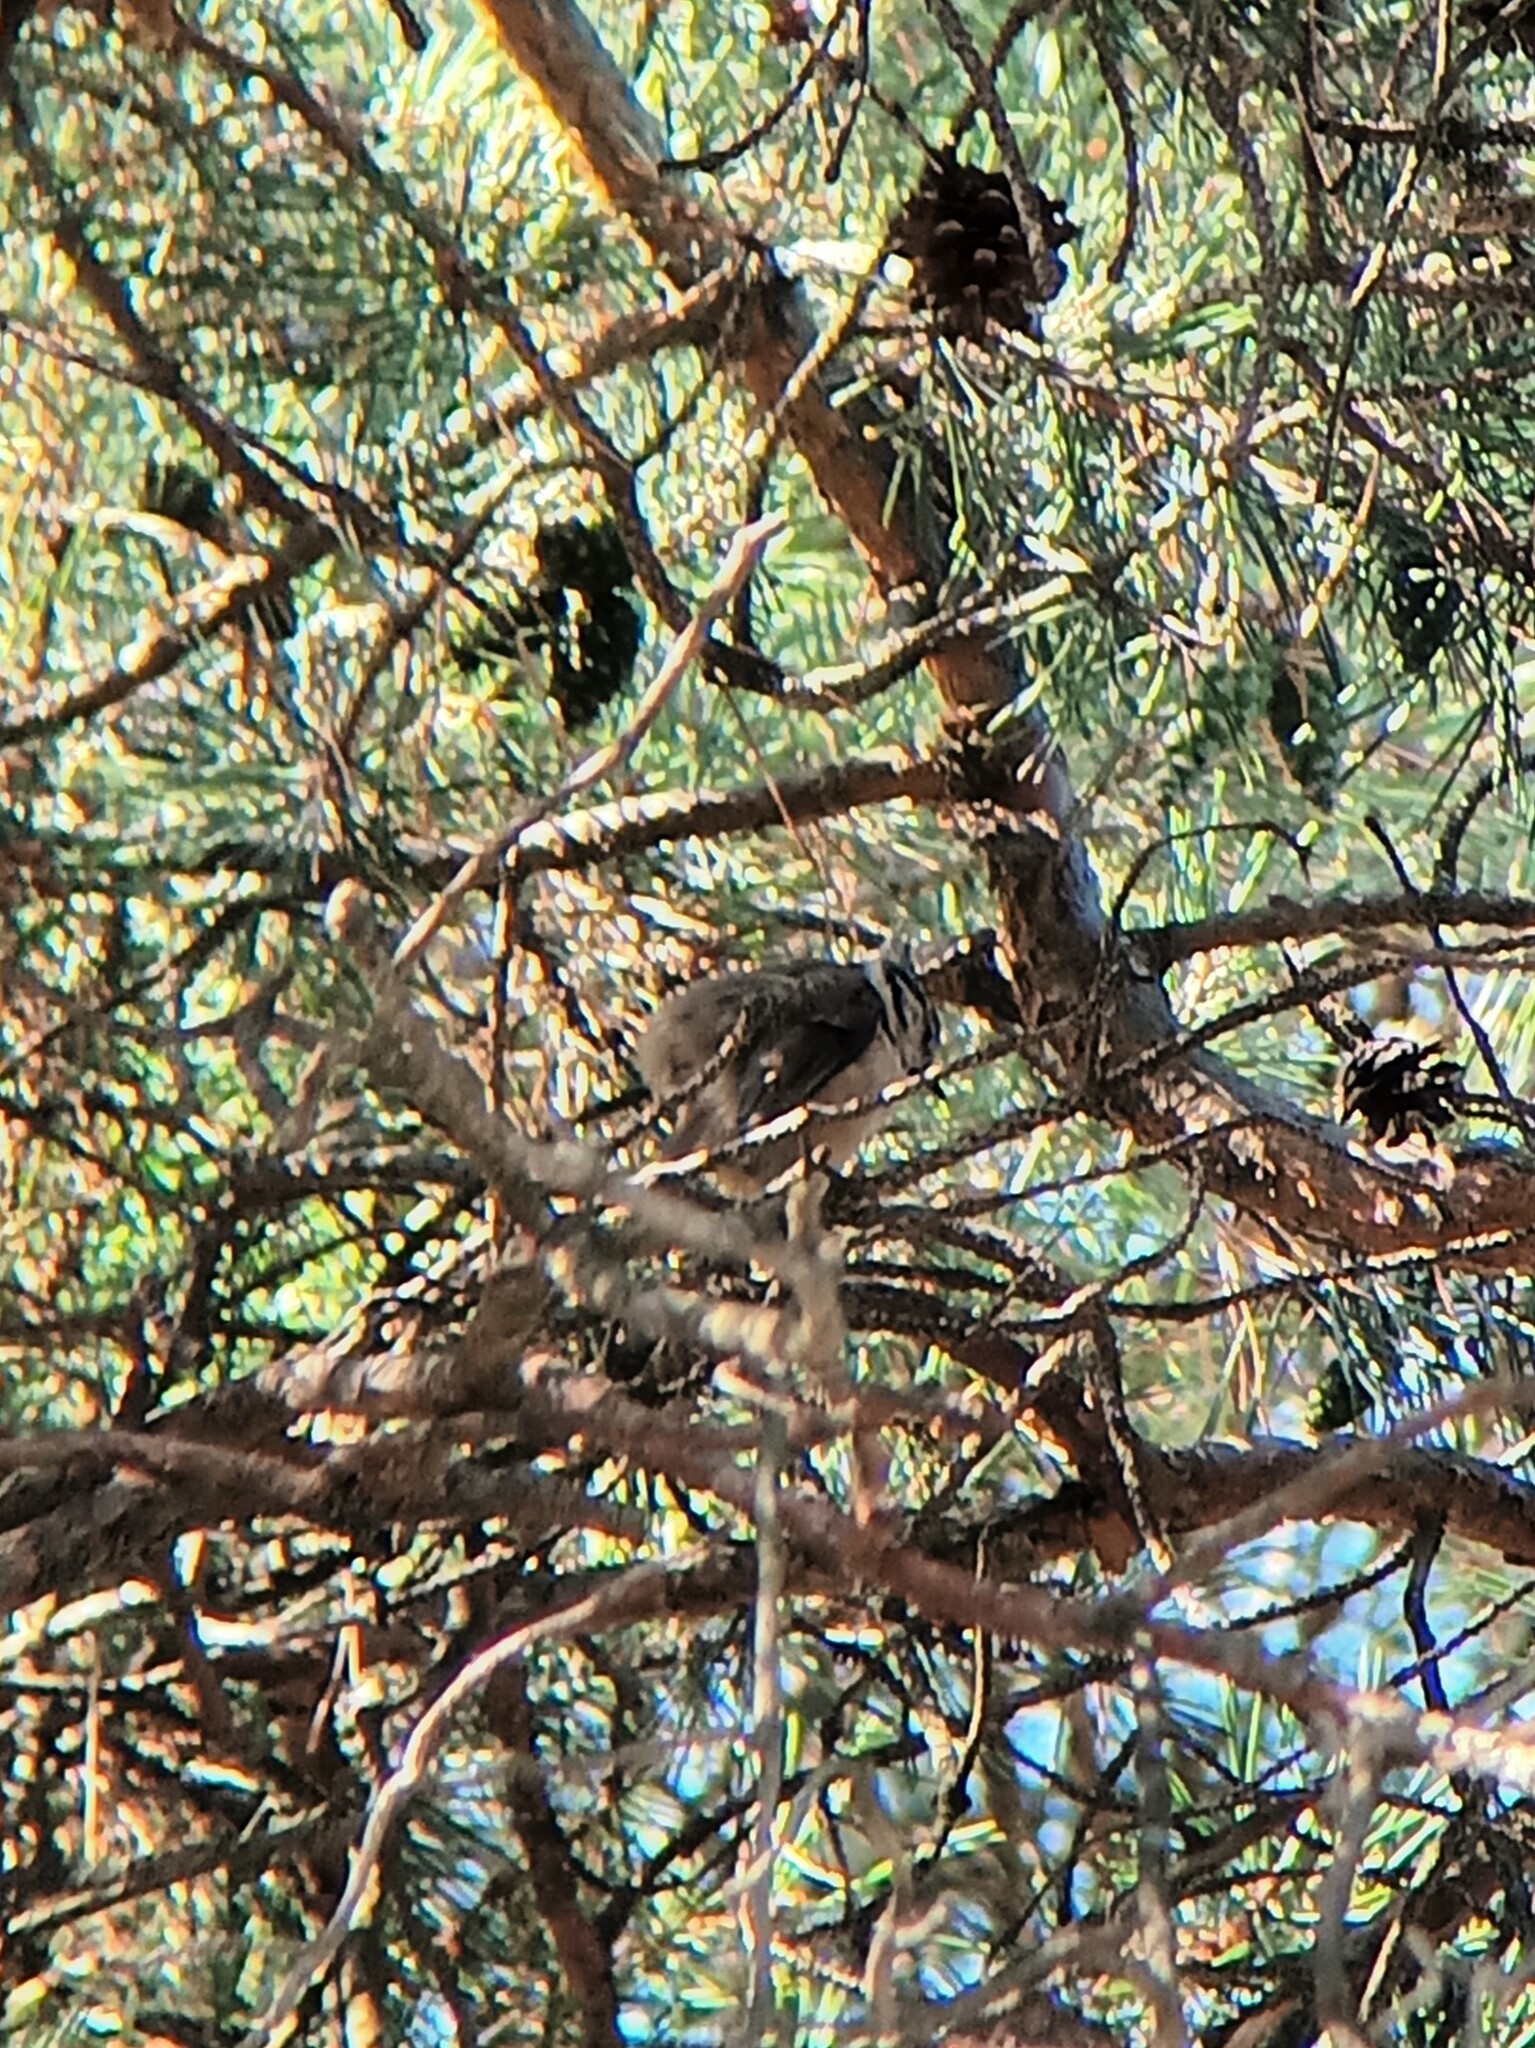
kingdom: Animalia
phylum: Chordata
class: Aves
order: Passeriformes
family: Paridae
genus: Lophophanes
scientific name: Lophophanes cristatus
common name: European crested tit
